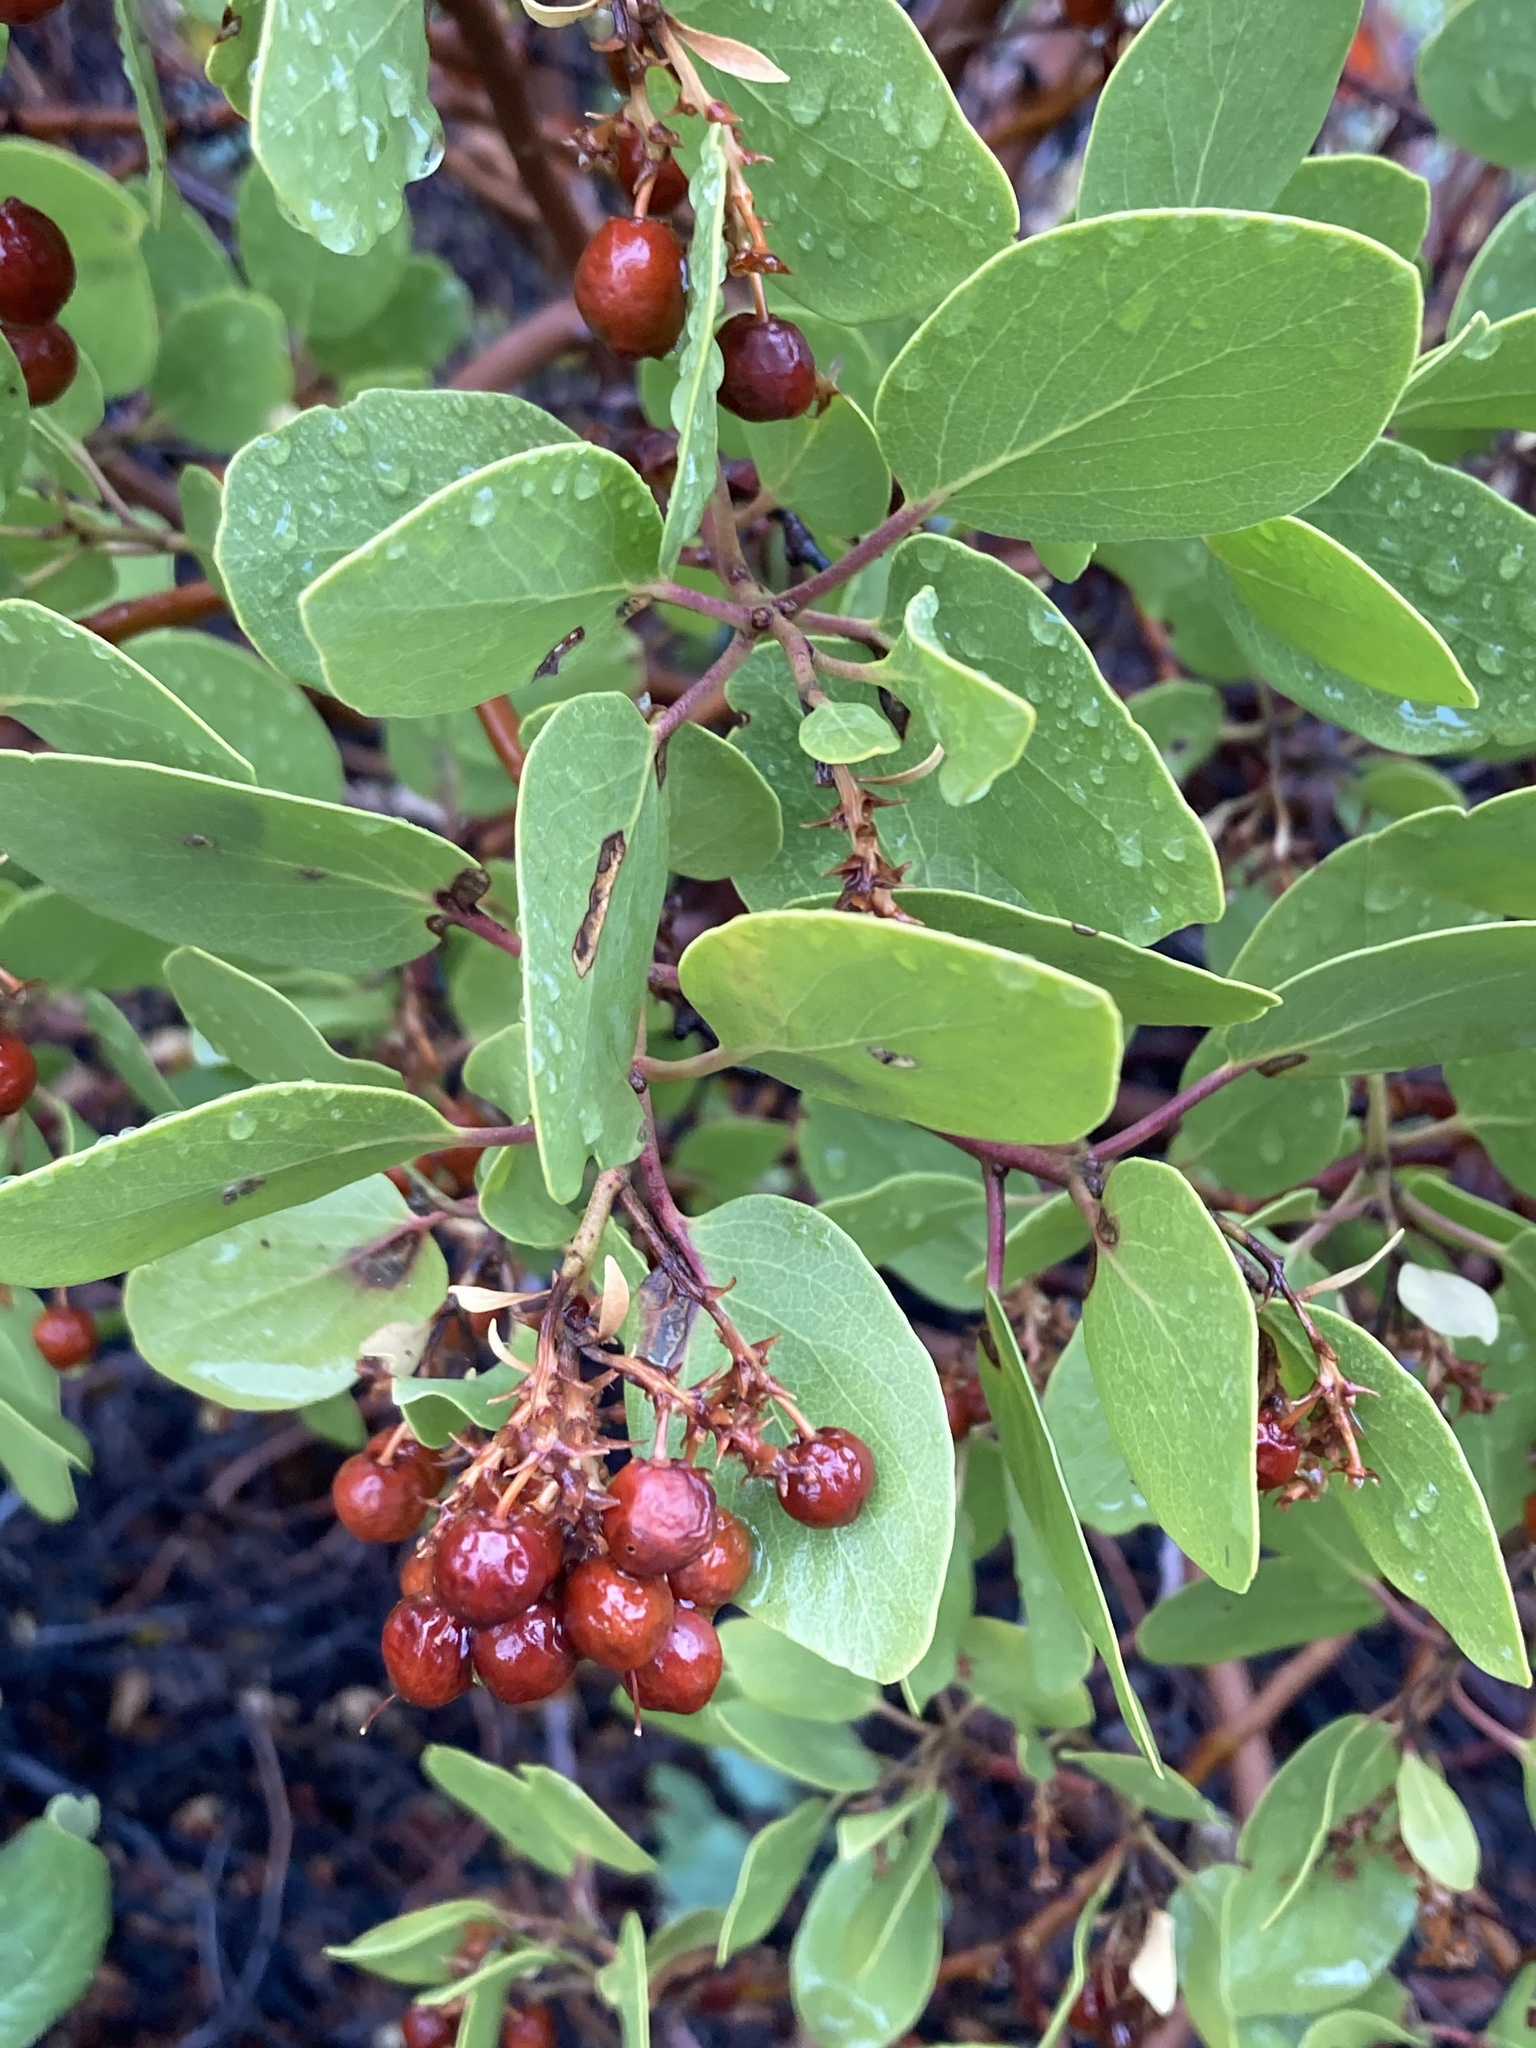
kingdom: Plantae
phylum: Tracheophyta
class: Magnoliopsida
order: Ericales
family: Ericaceae
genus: Arctostaphylos
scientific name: Arctostaphylos patula
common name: Green-leaf manzanita
